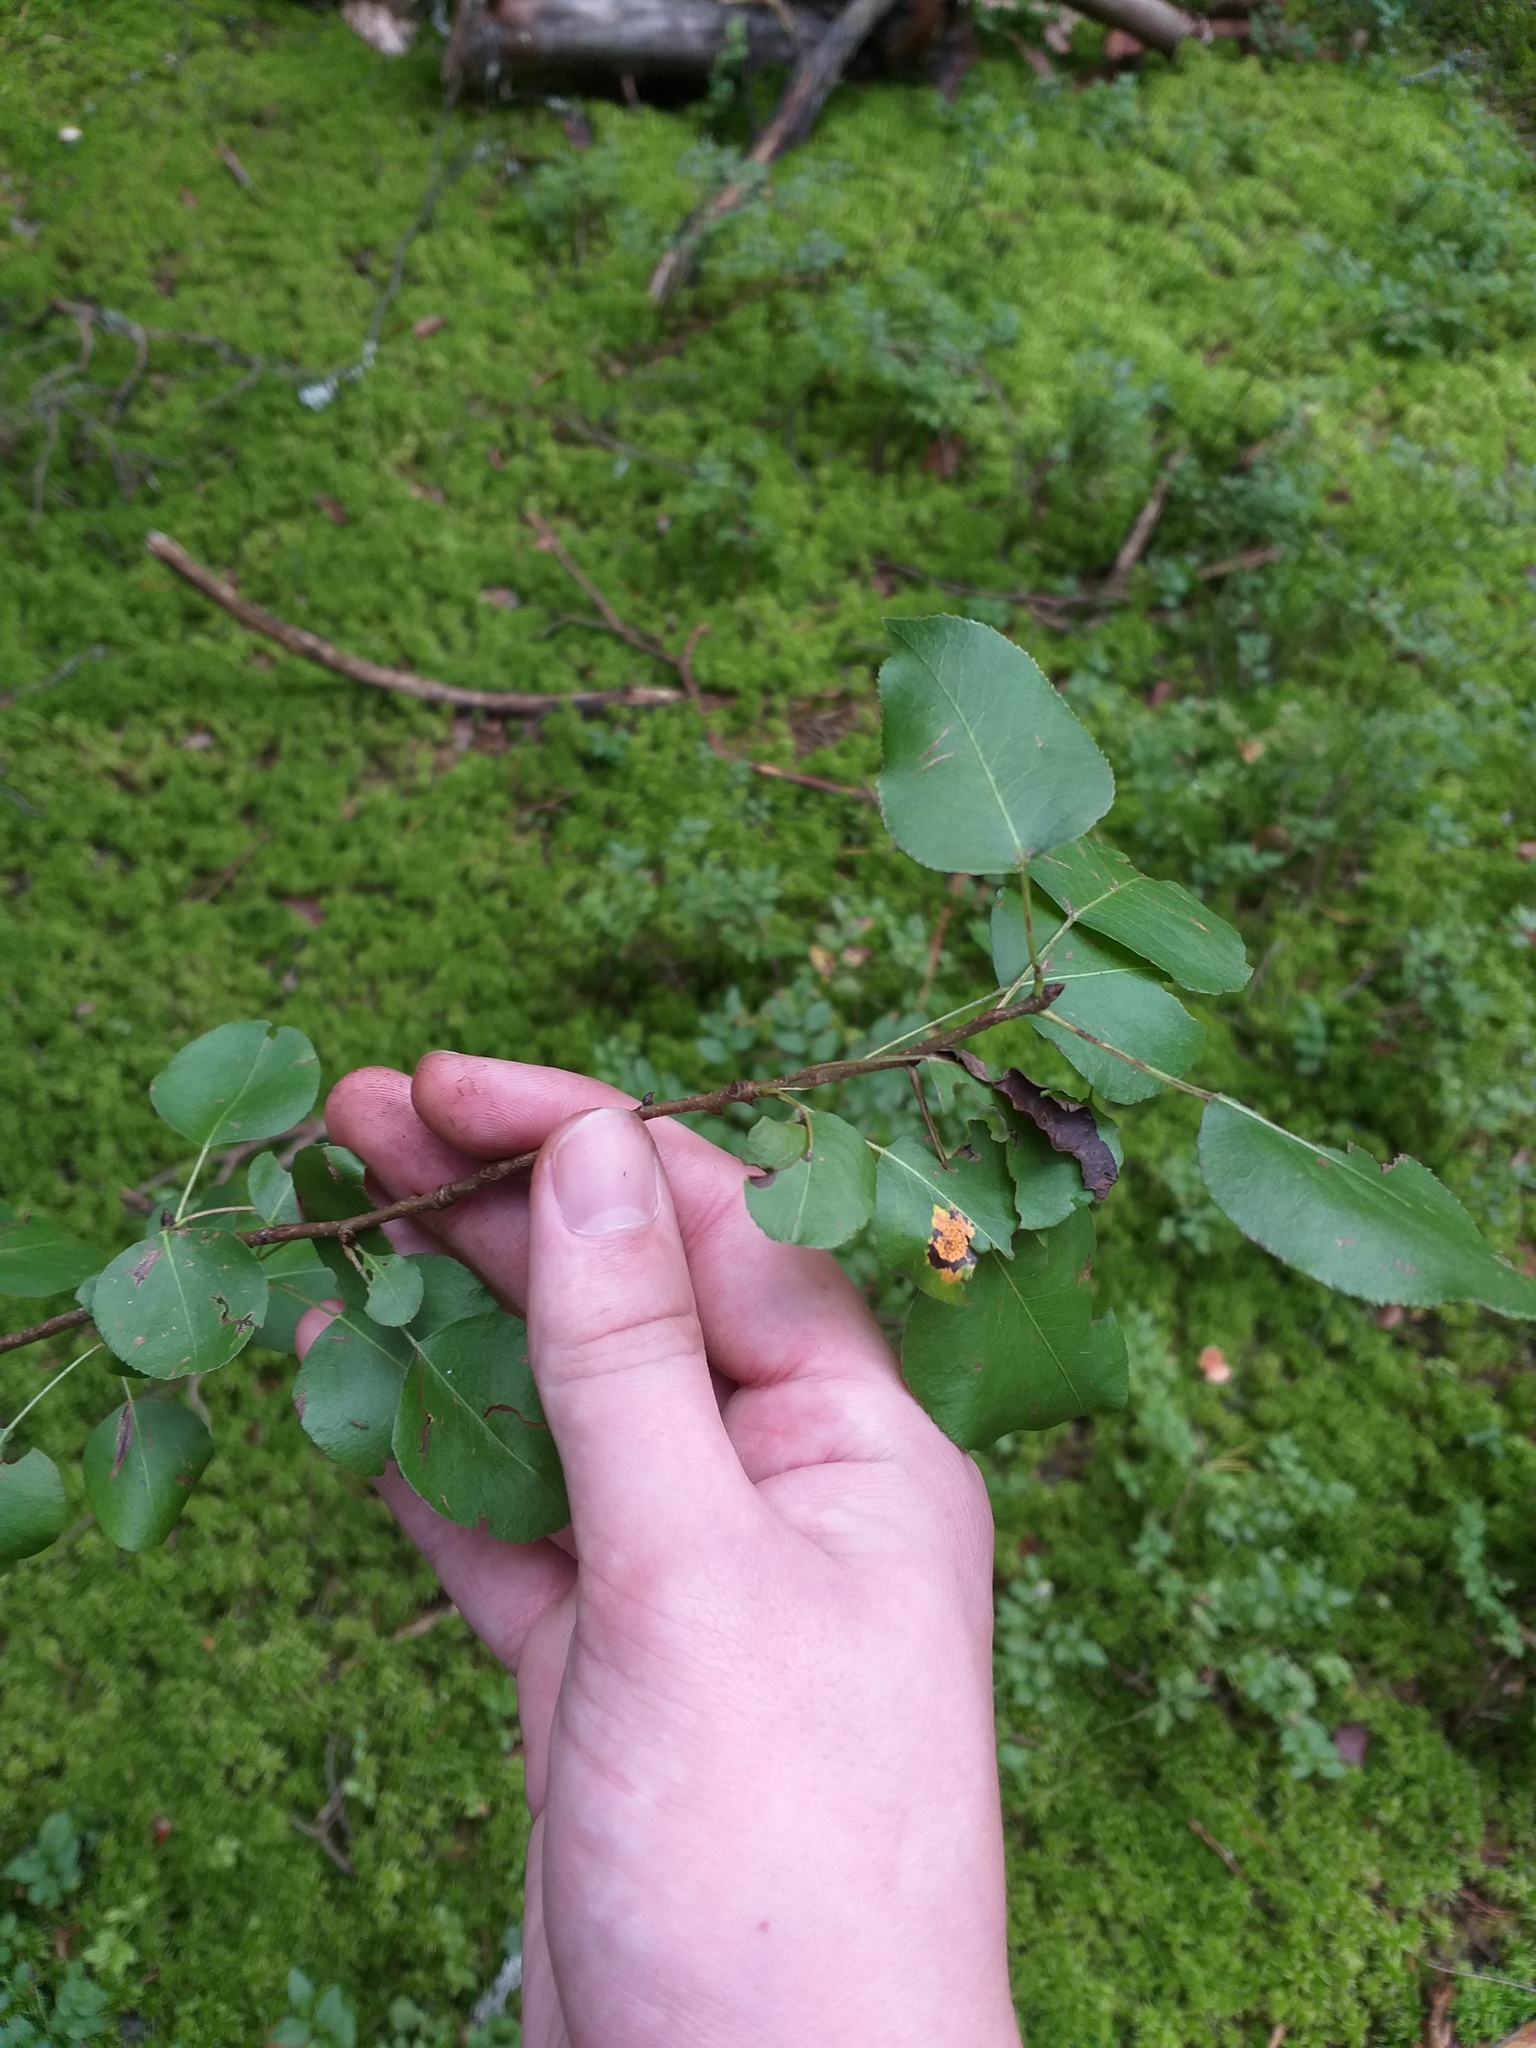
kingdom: Plantae
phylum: Tracheophyta
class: Magnoliopsida
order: Rosales
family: Rosaceae
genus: Pyrus
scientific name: Pyrus communis
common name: Pear
